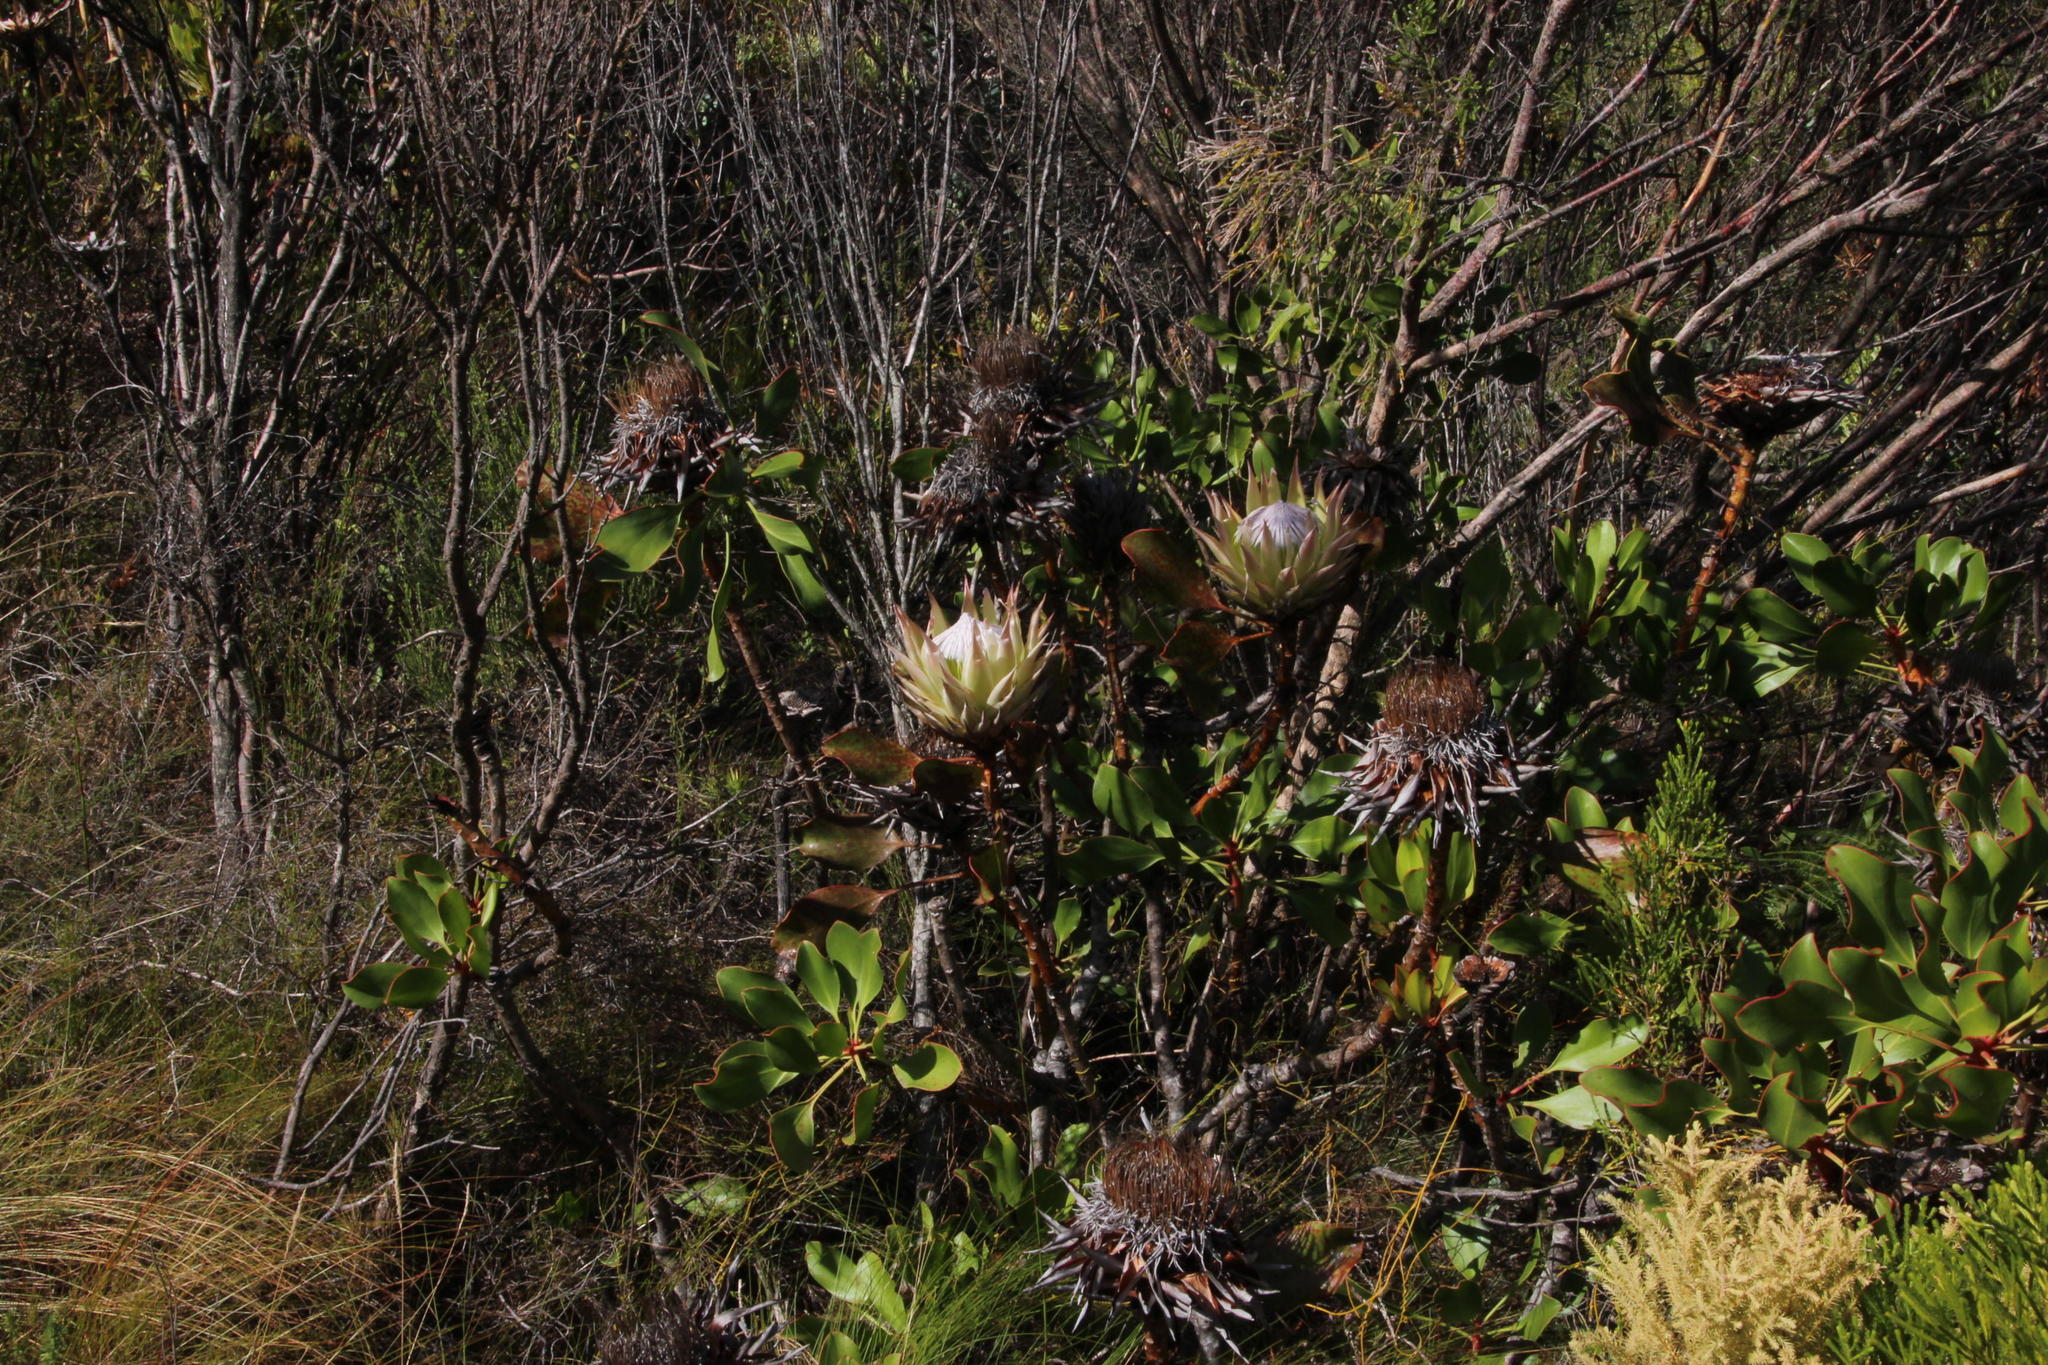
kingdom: Plantae
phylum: Tracheophyta
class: Magnoliopsida
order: Proteales
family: Proteaceae
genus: Protea
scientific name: Protea cynaroides
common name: King protea
